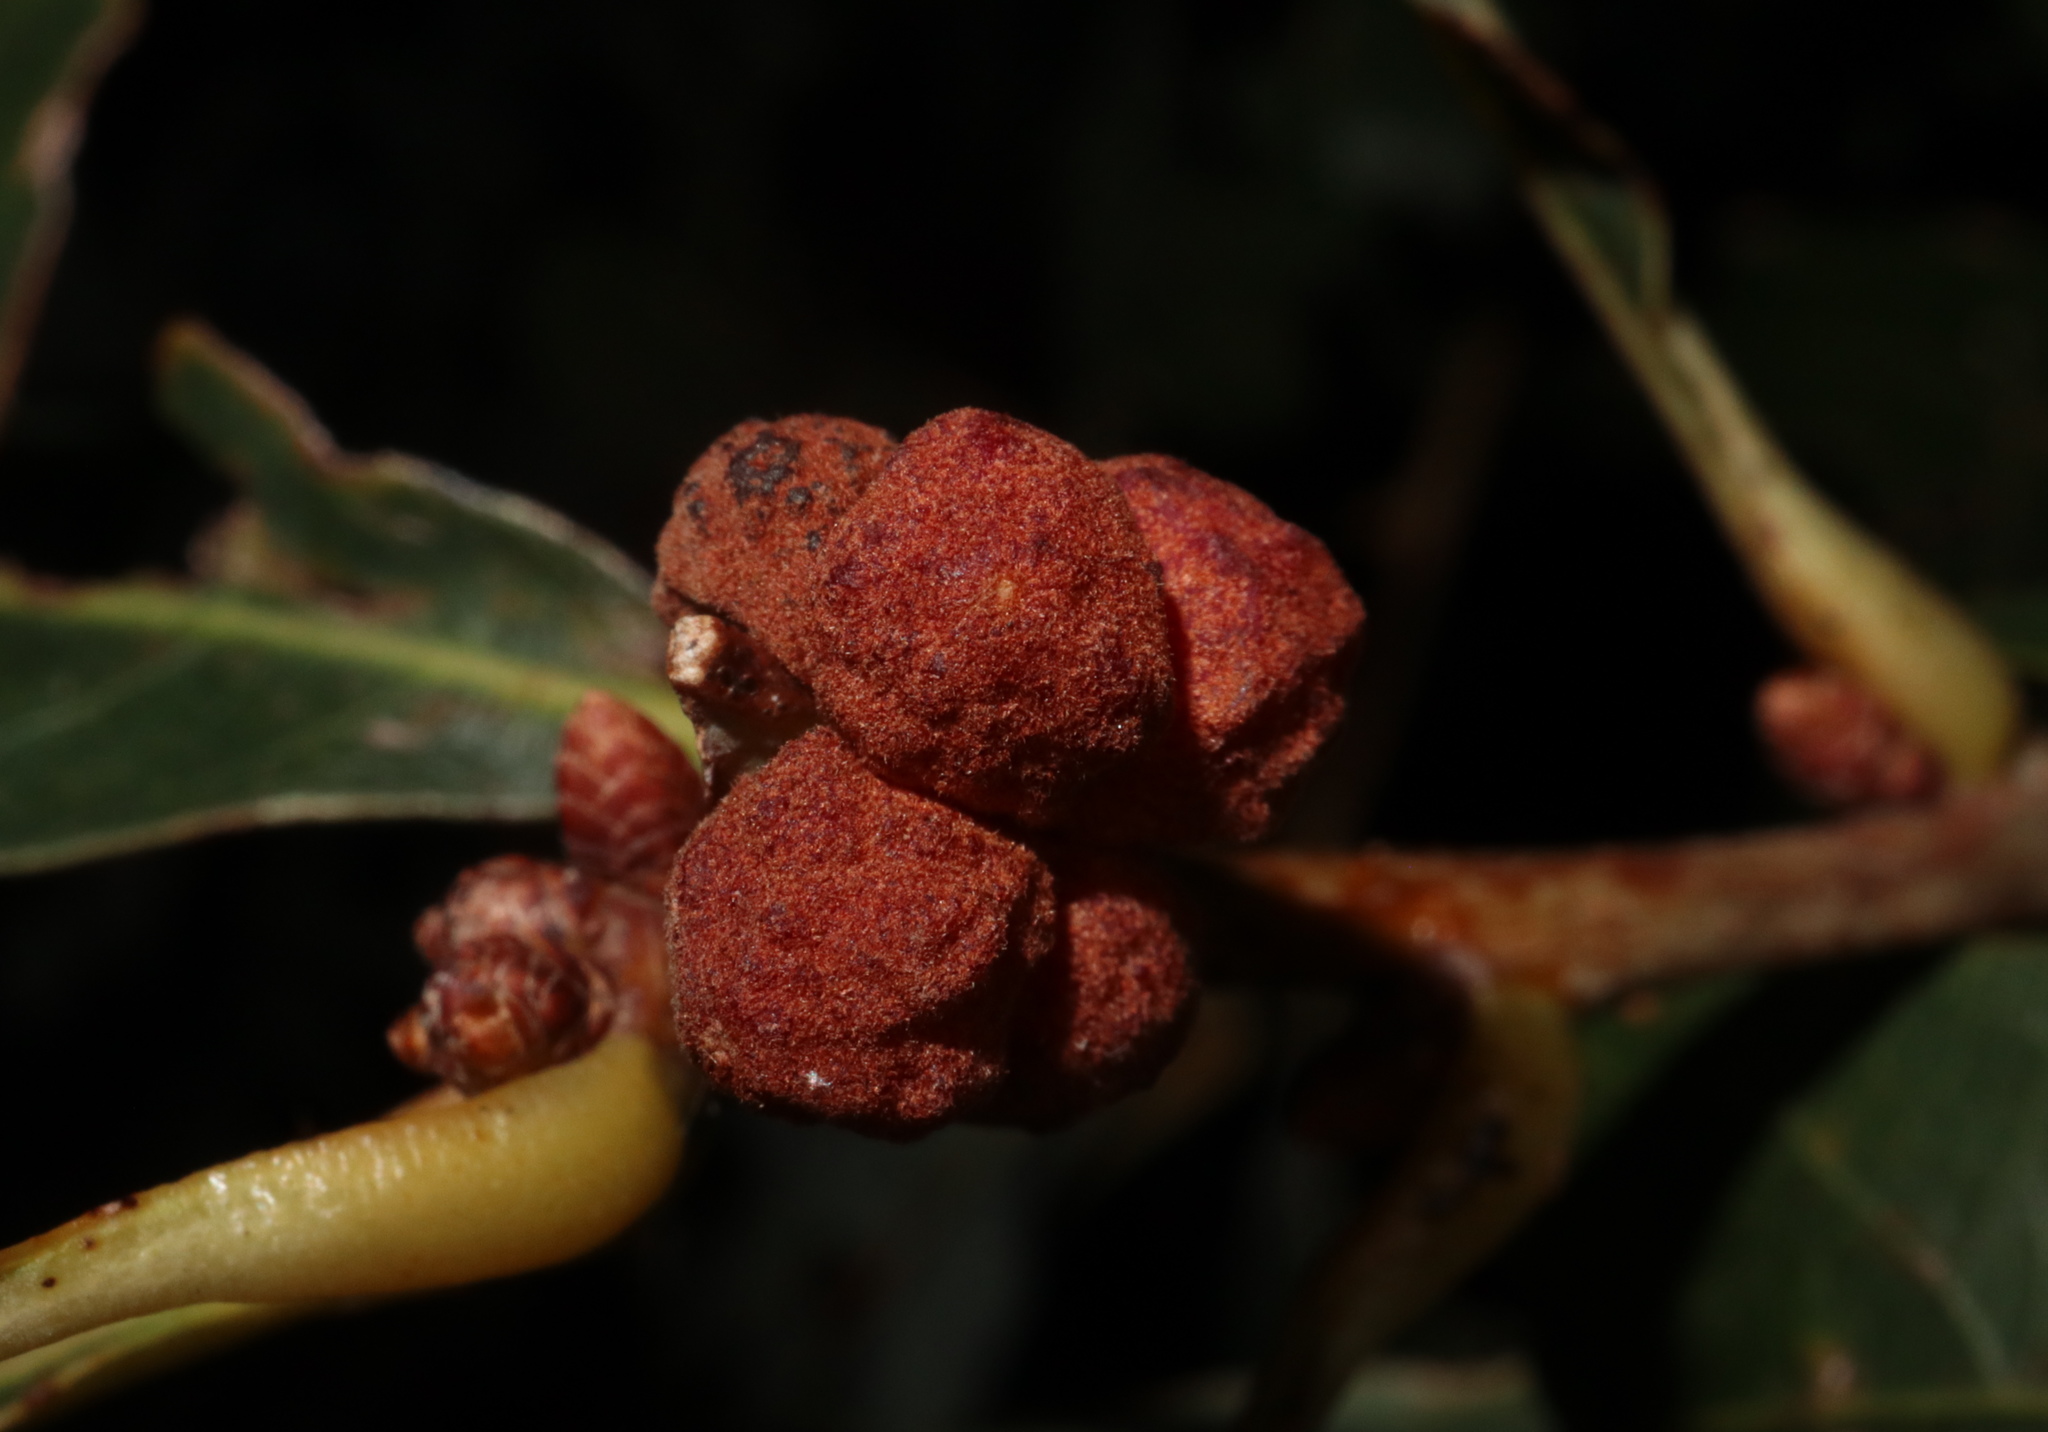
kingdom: Animalia
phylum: Arthropoda
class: Insecta
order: Hymenoptera
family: Cynipidae
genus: Andricus
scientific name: Andricus
